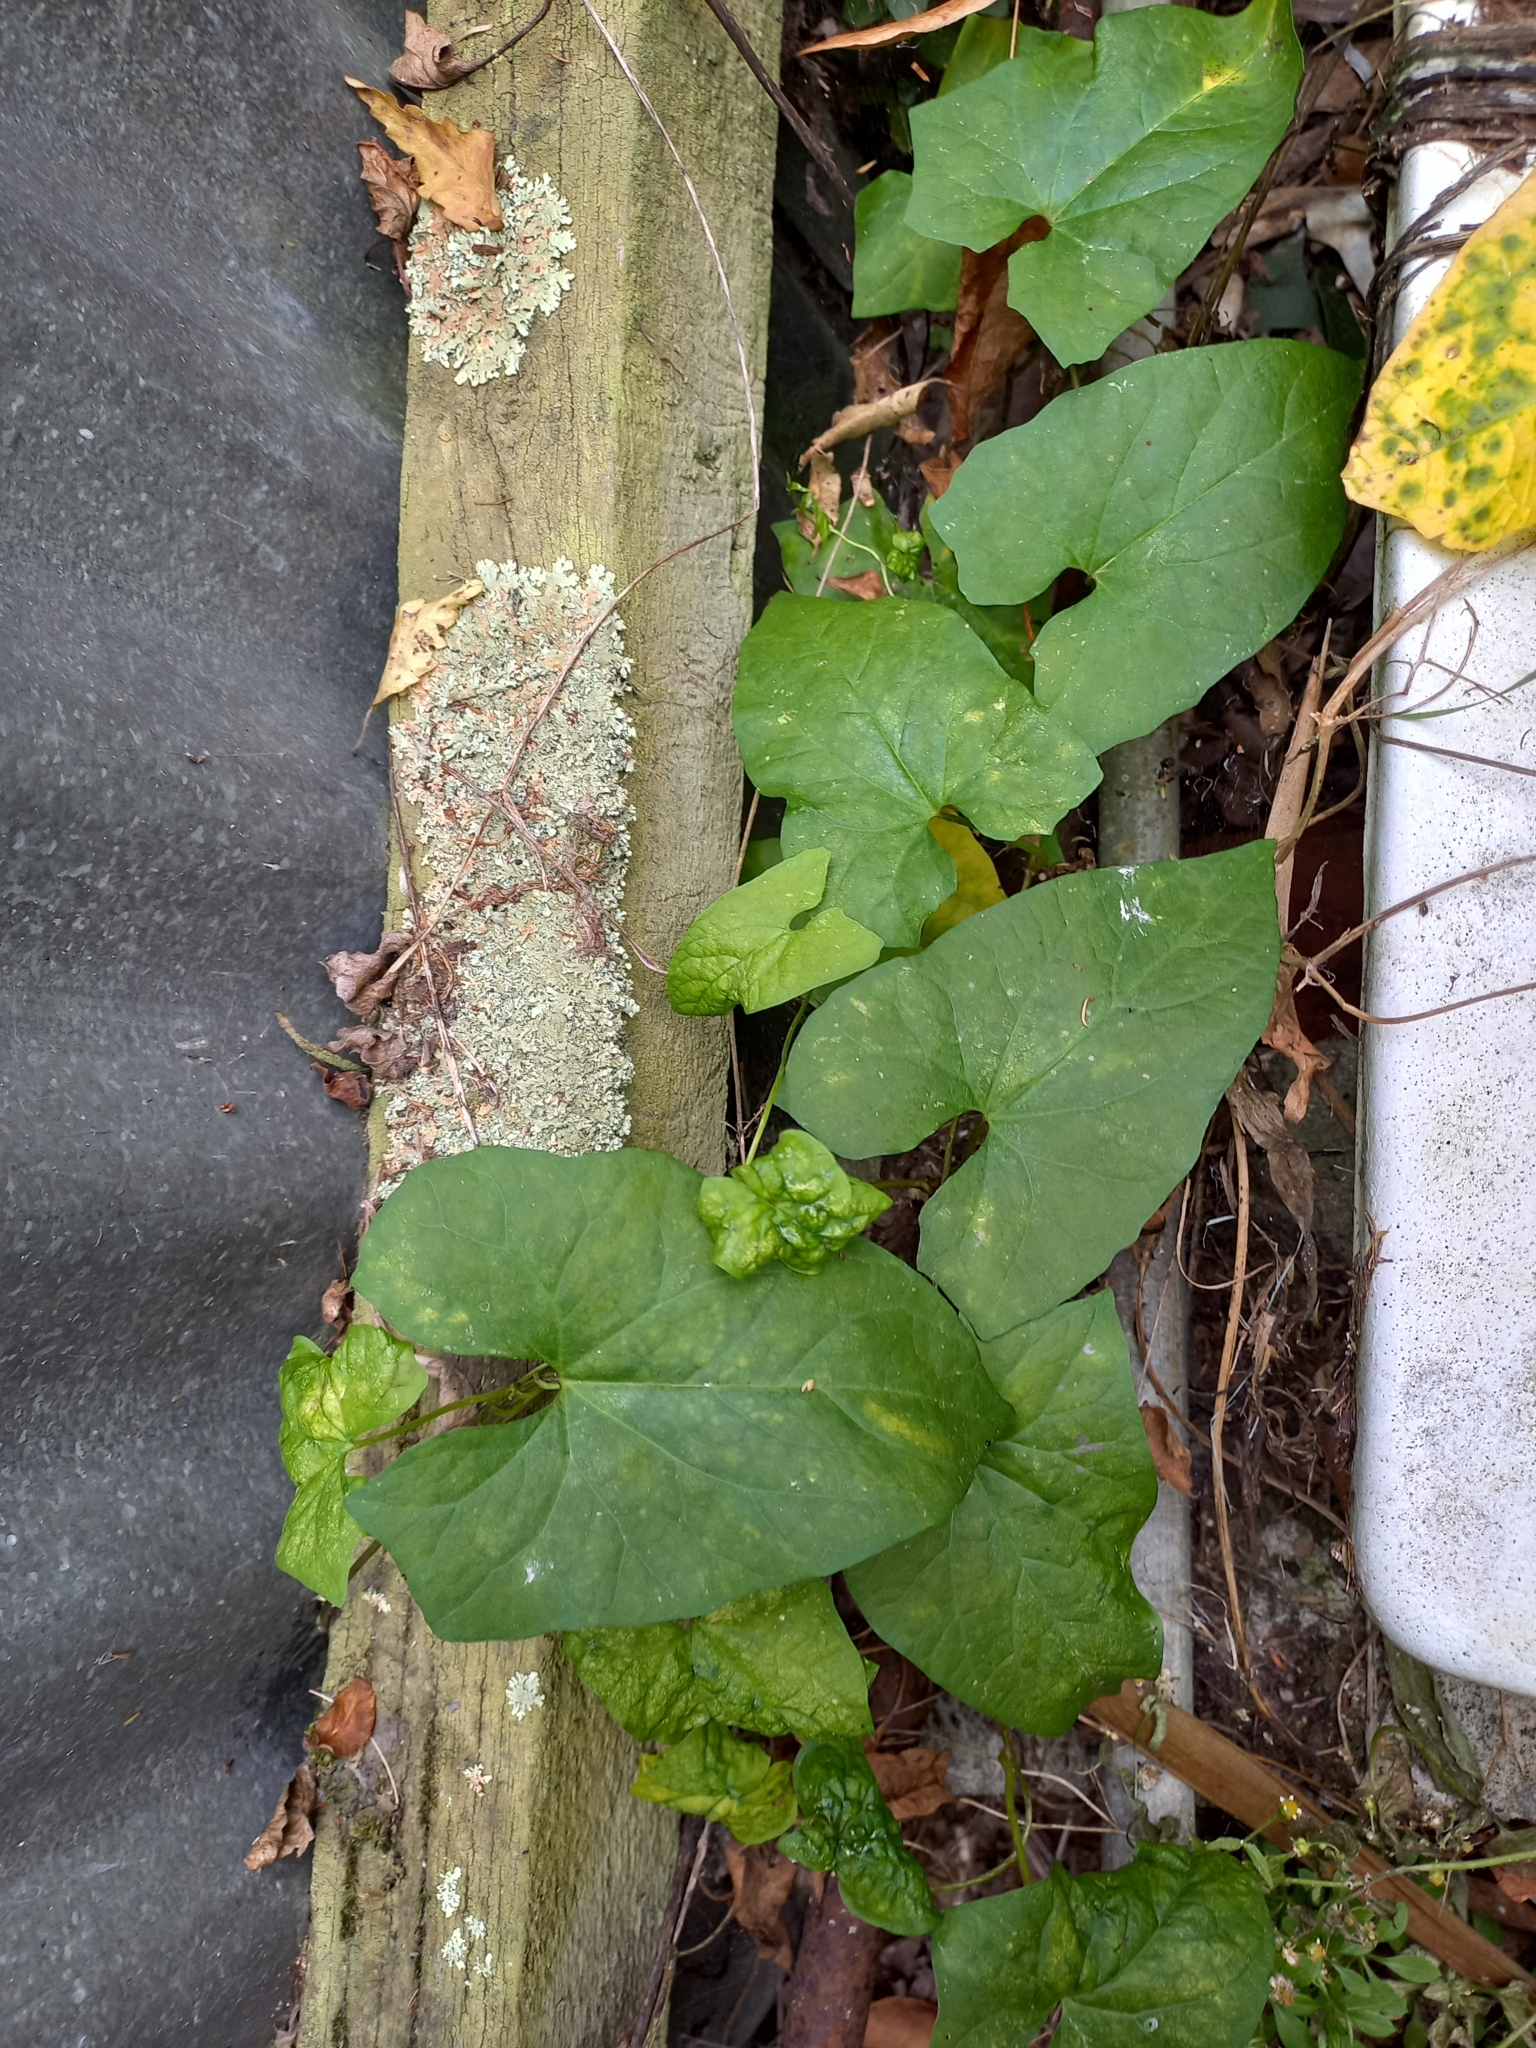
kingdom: Plantae
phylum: Tracheophyta
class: Magnoliopsida
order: Solanales
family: Convolvulaceae
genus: Calystegia
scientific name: Calystegia silvatica
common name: Large bindweed
